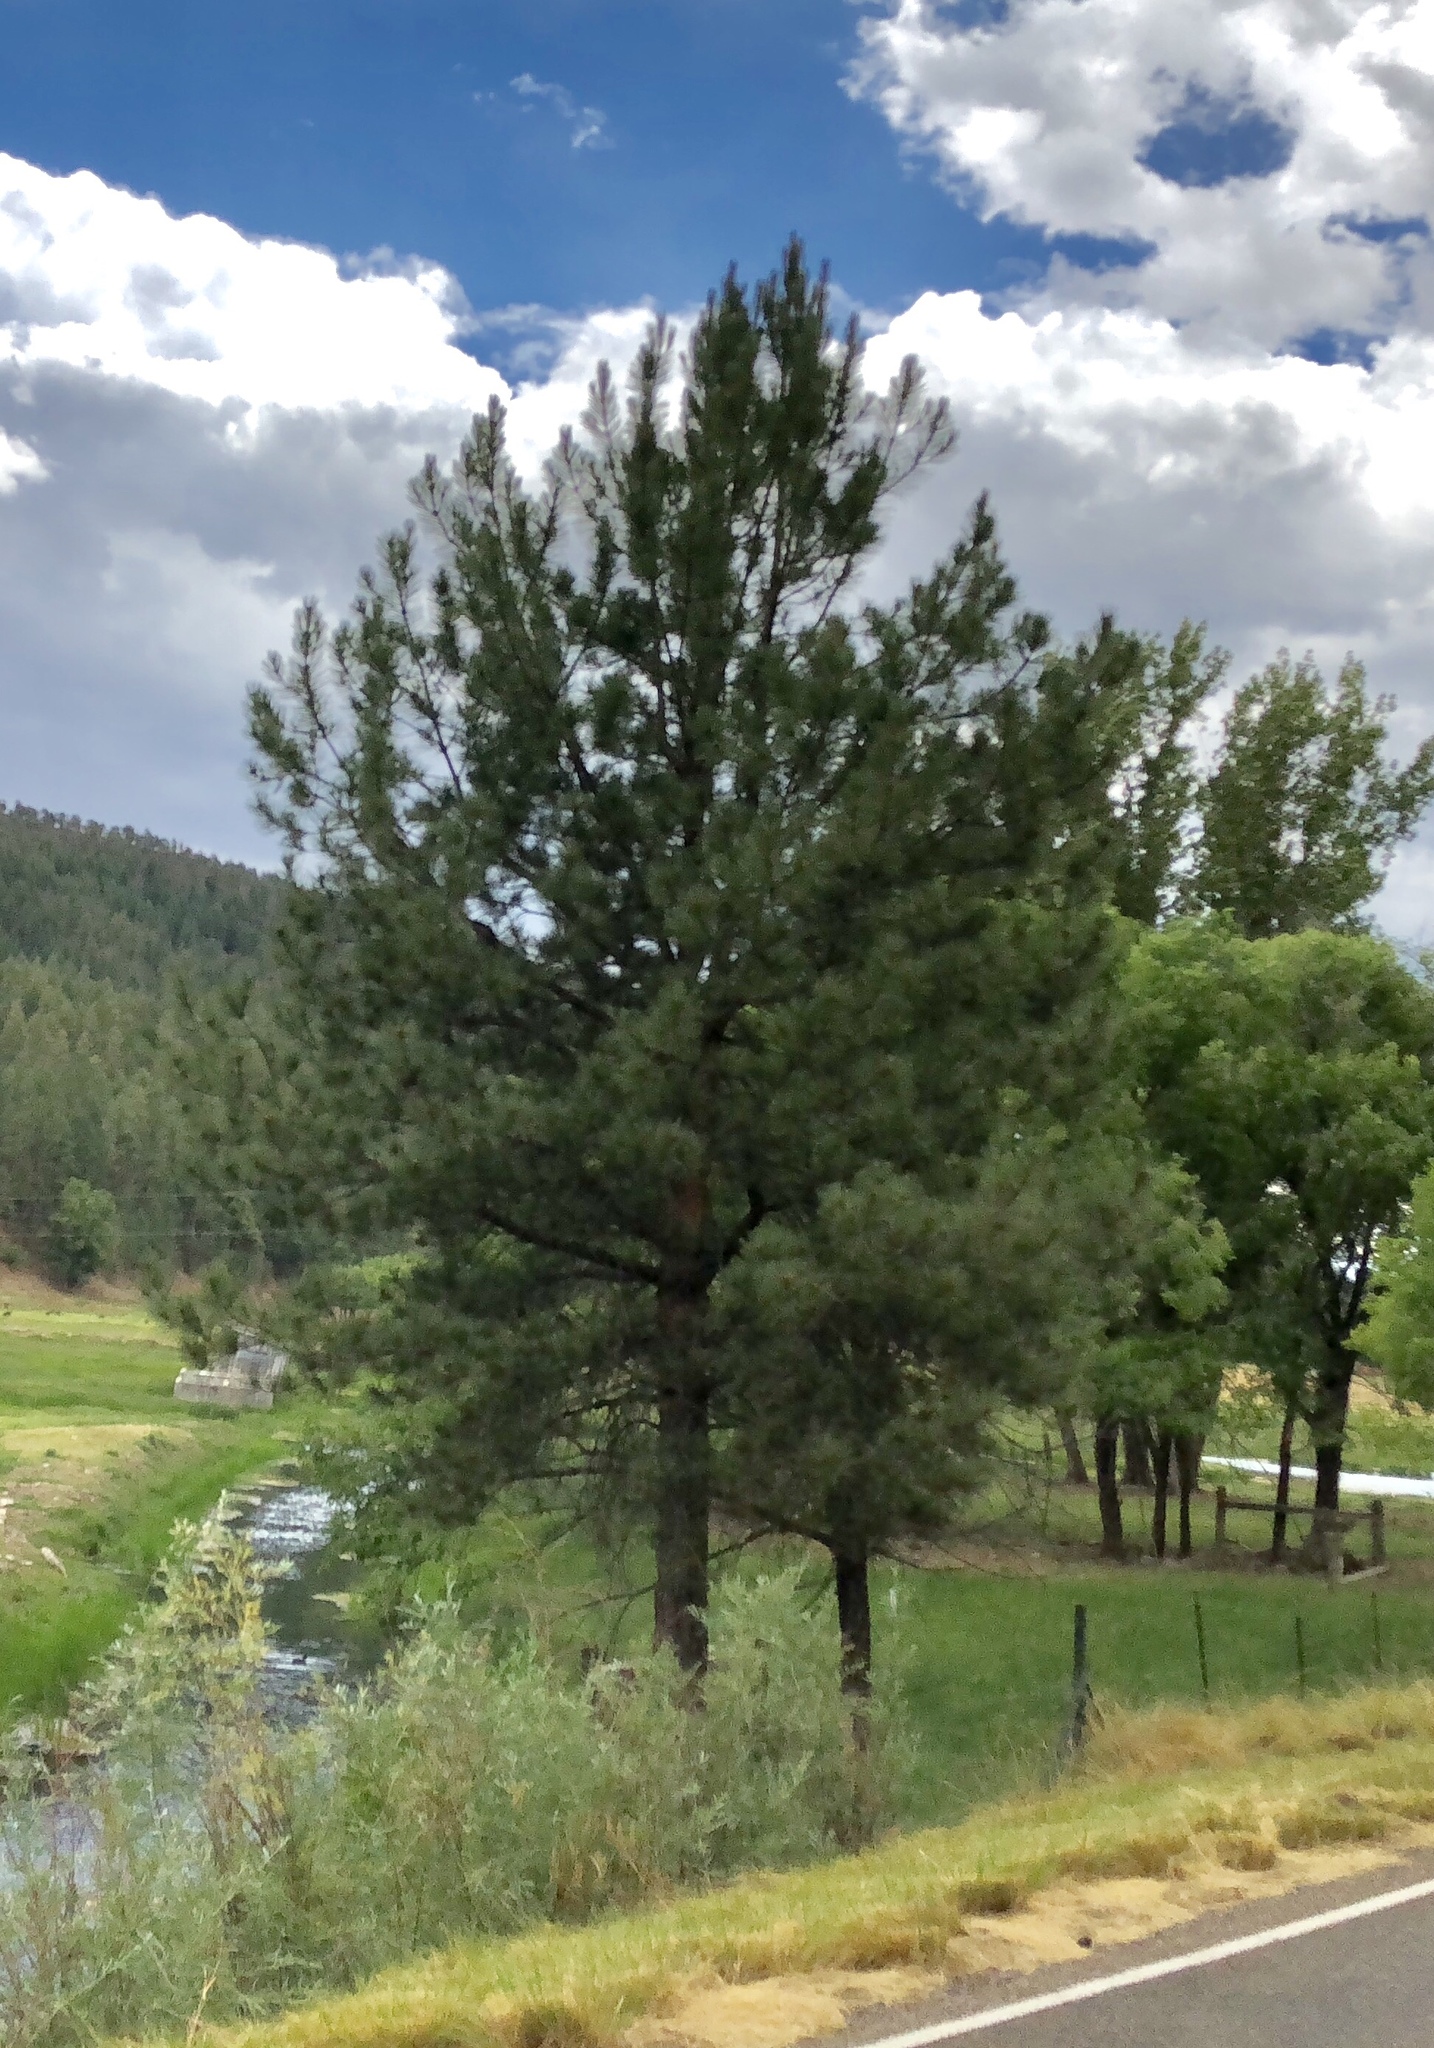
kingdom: Plantae
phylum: Tracheophyta
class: Pinopsida
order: Pinales
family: Pinaceae
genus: Pinus
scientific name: Pinus ponderosa
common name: Western yellow-pine
